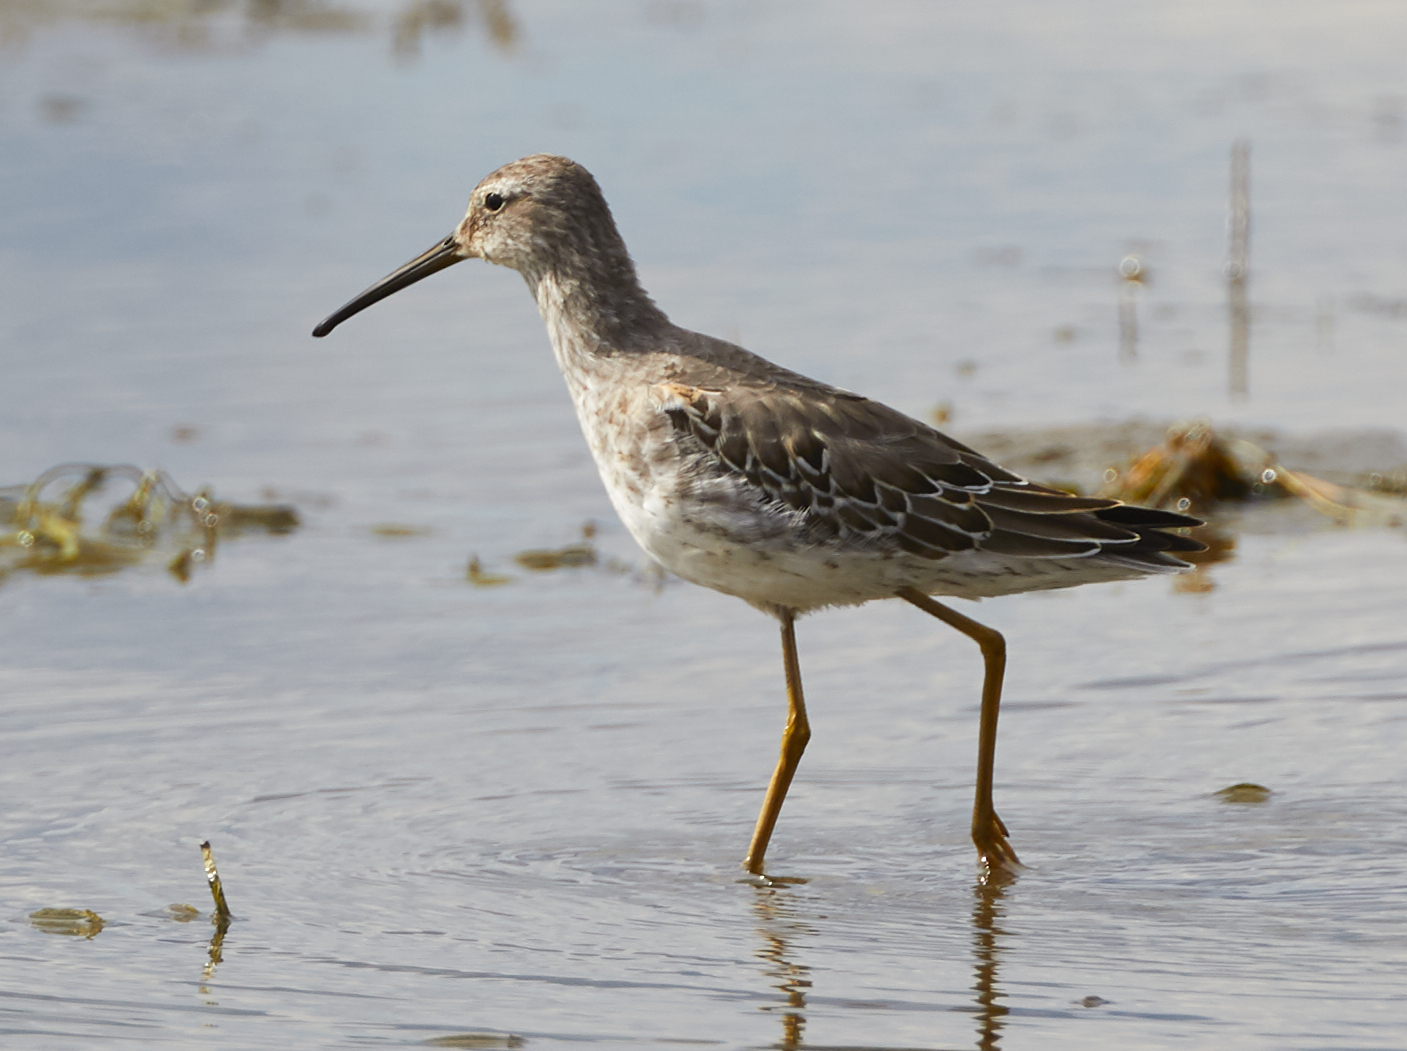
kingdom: Animalia
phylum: Chordata
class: Aves
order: Charadriiformes
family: Scolopacidae
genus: Calidris
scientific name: Calidris himantopus
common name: Stilt sandpiper
